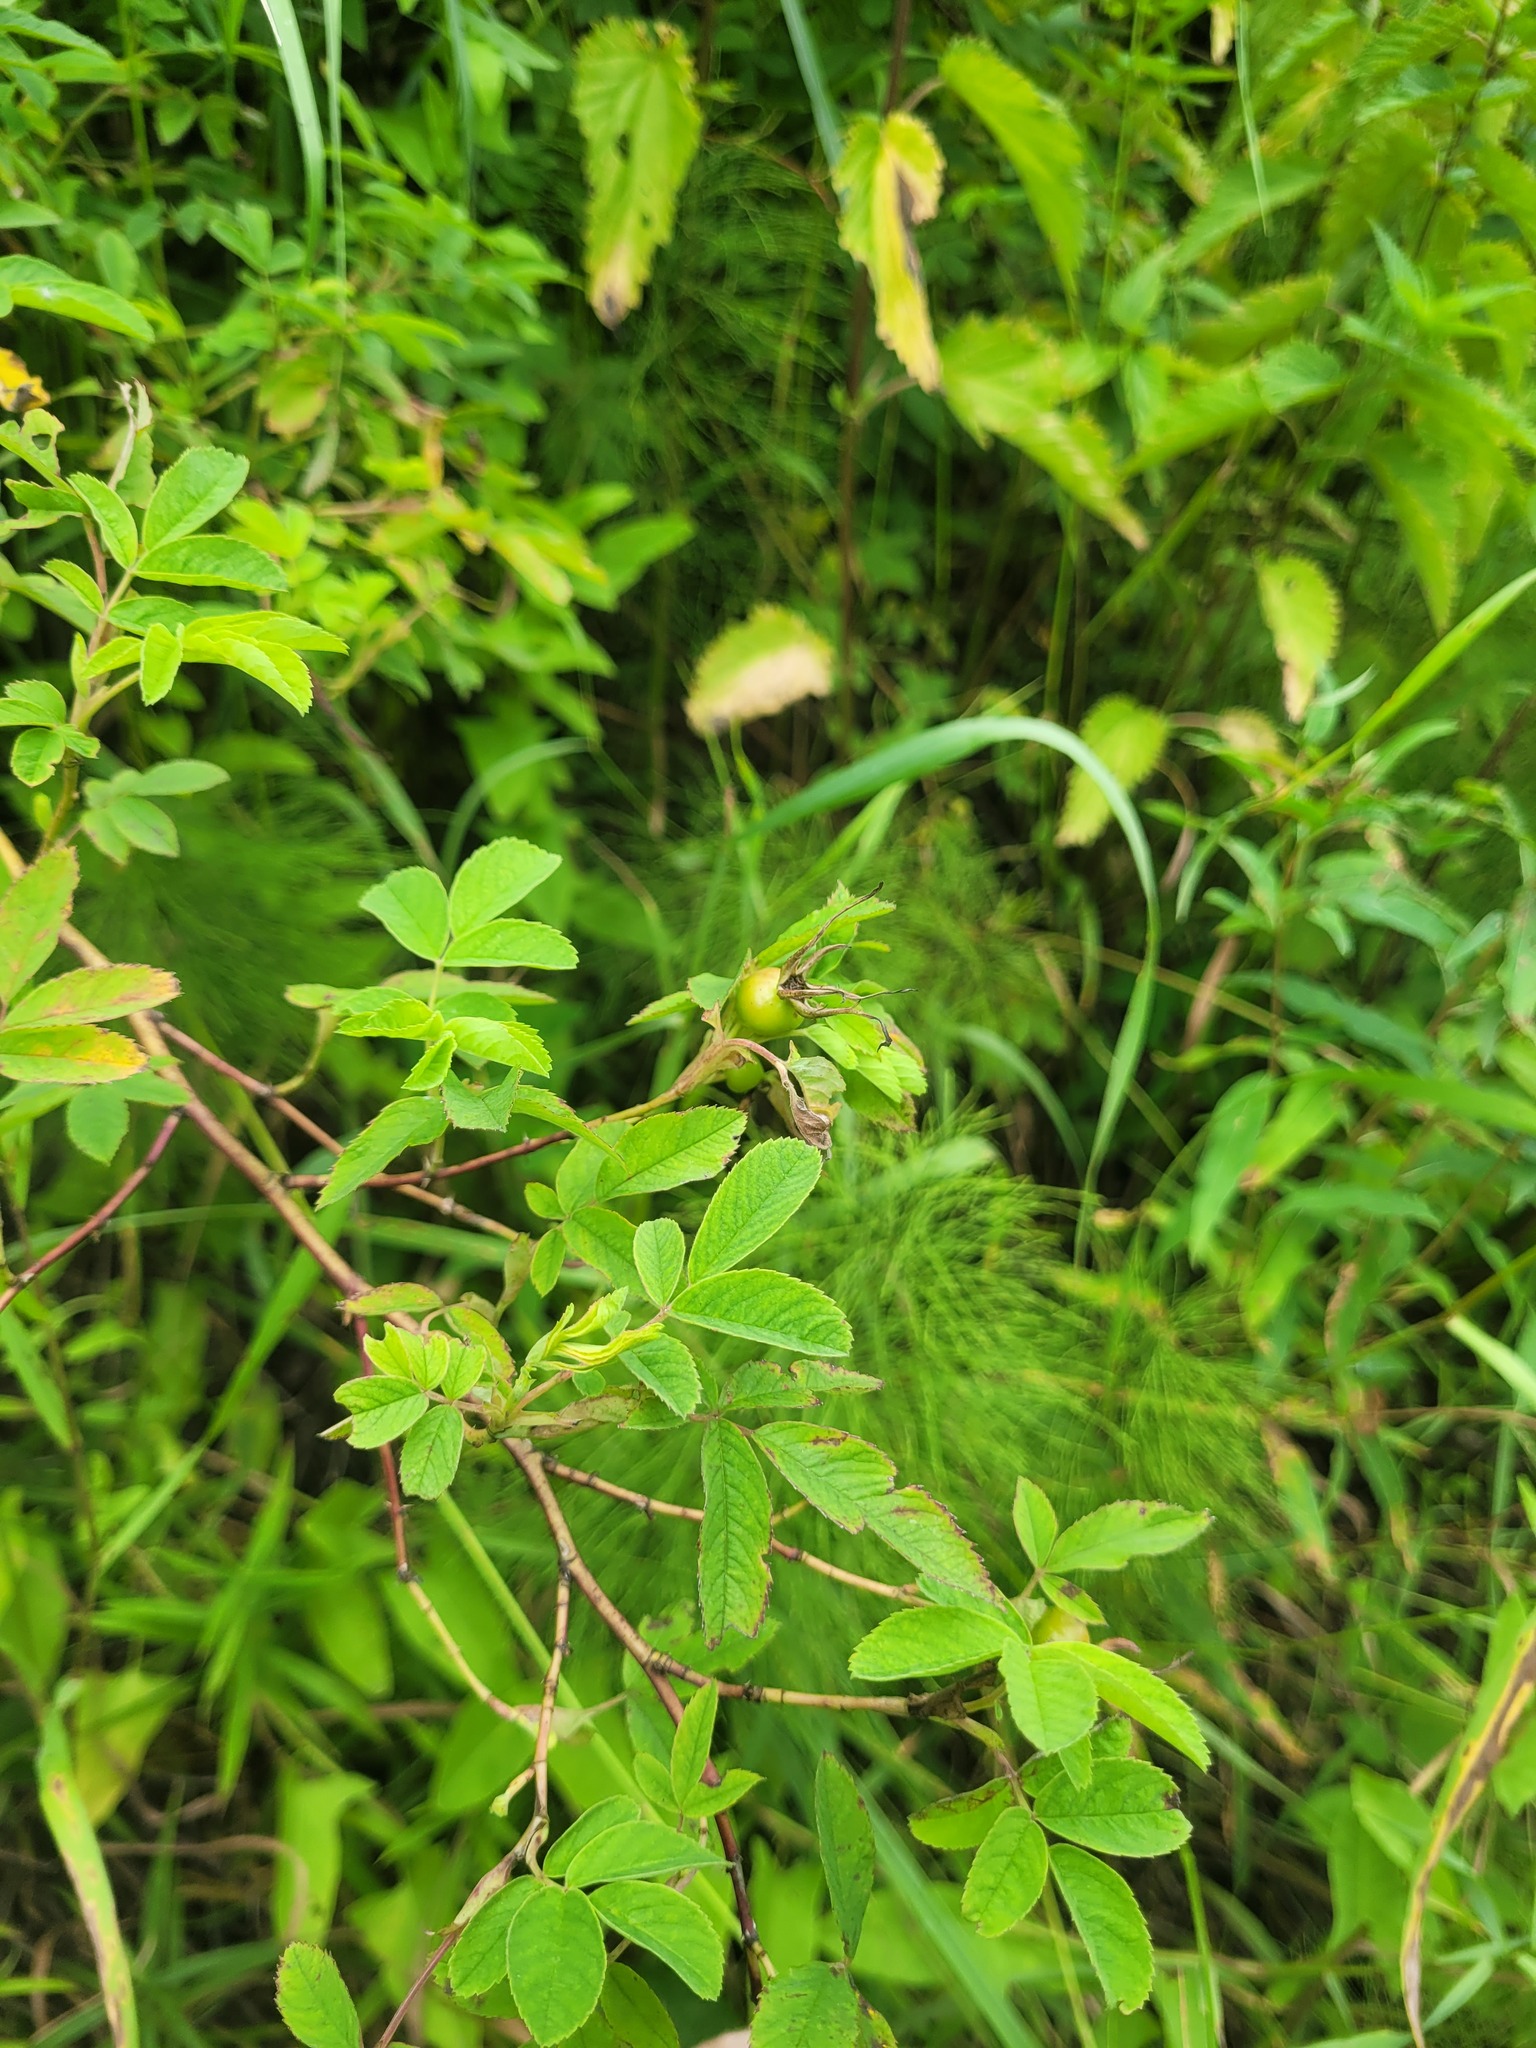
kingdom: Plantae
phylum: Tracheophyta
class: Magnoliopsida
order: Rosales
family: Rosaceae
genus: Rosa
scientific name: Rosa majalis
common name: Cinnamon rose
